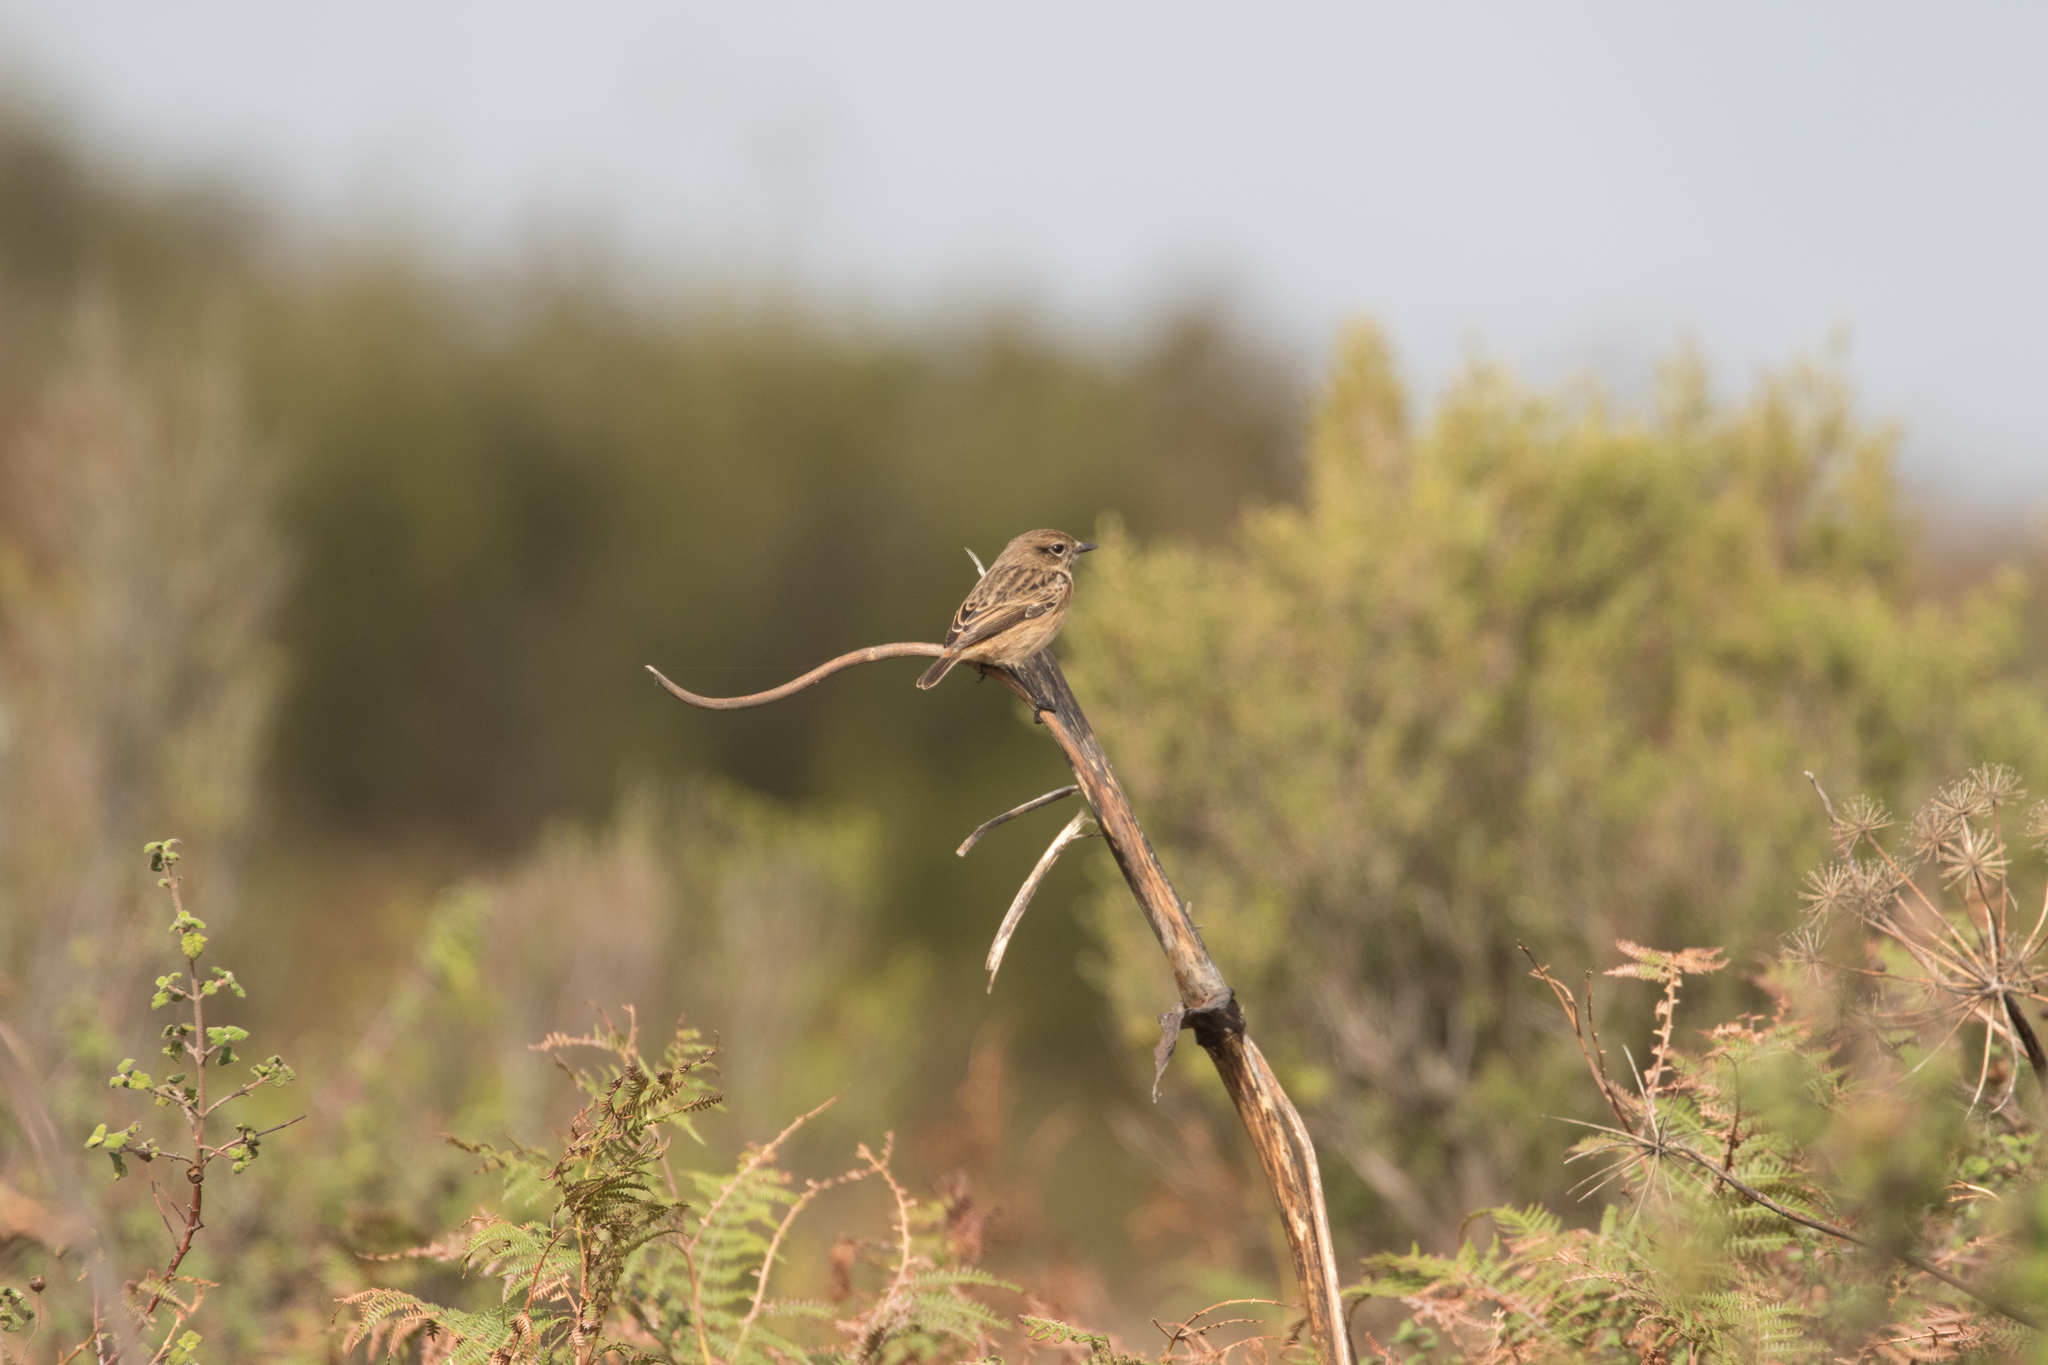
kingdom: Animalia
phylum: Chordata
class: Aves
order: Passeriformes
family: Muscicapidae
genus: Saxicola
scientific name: Saxicola rubicola
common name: European stonechat
